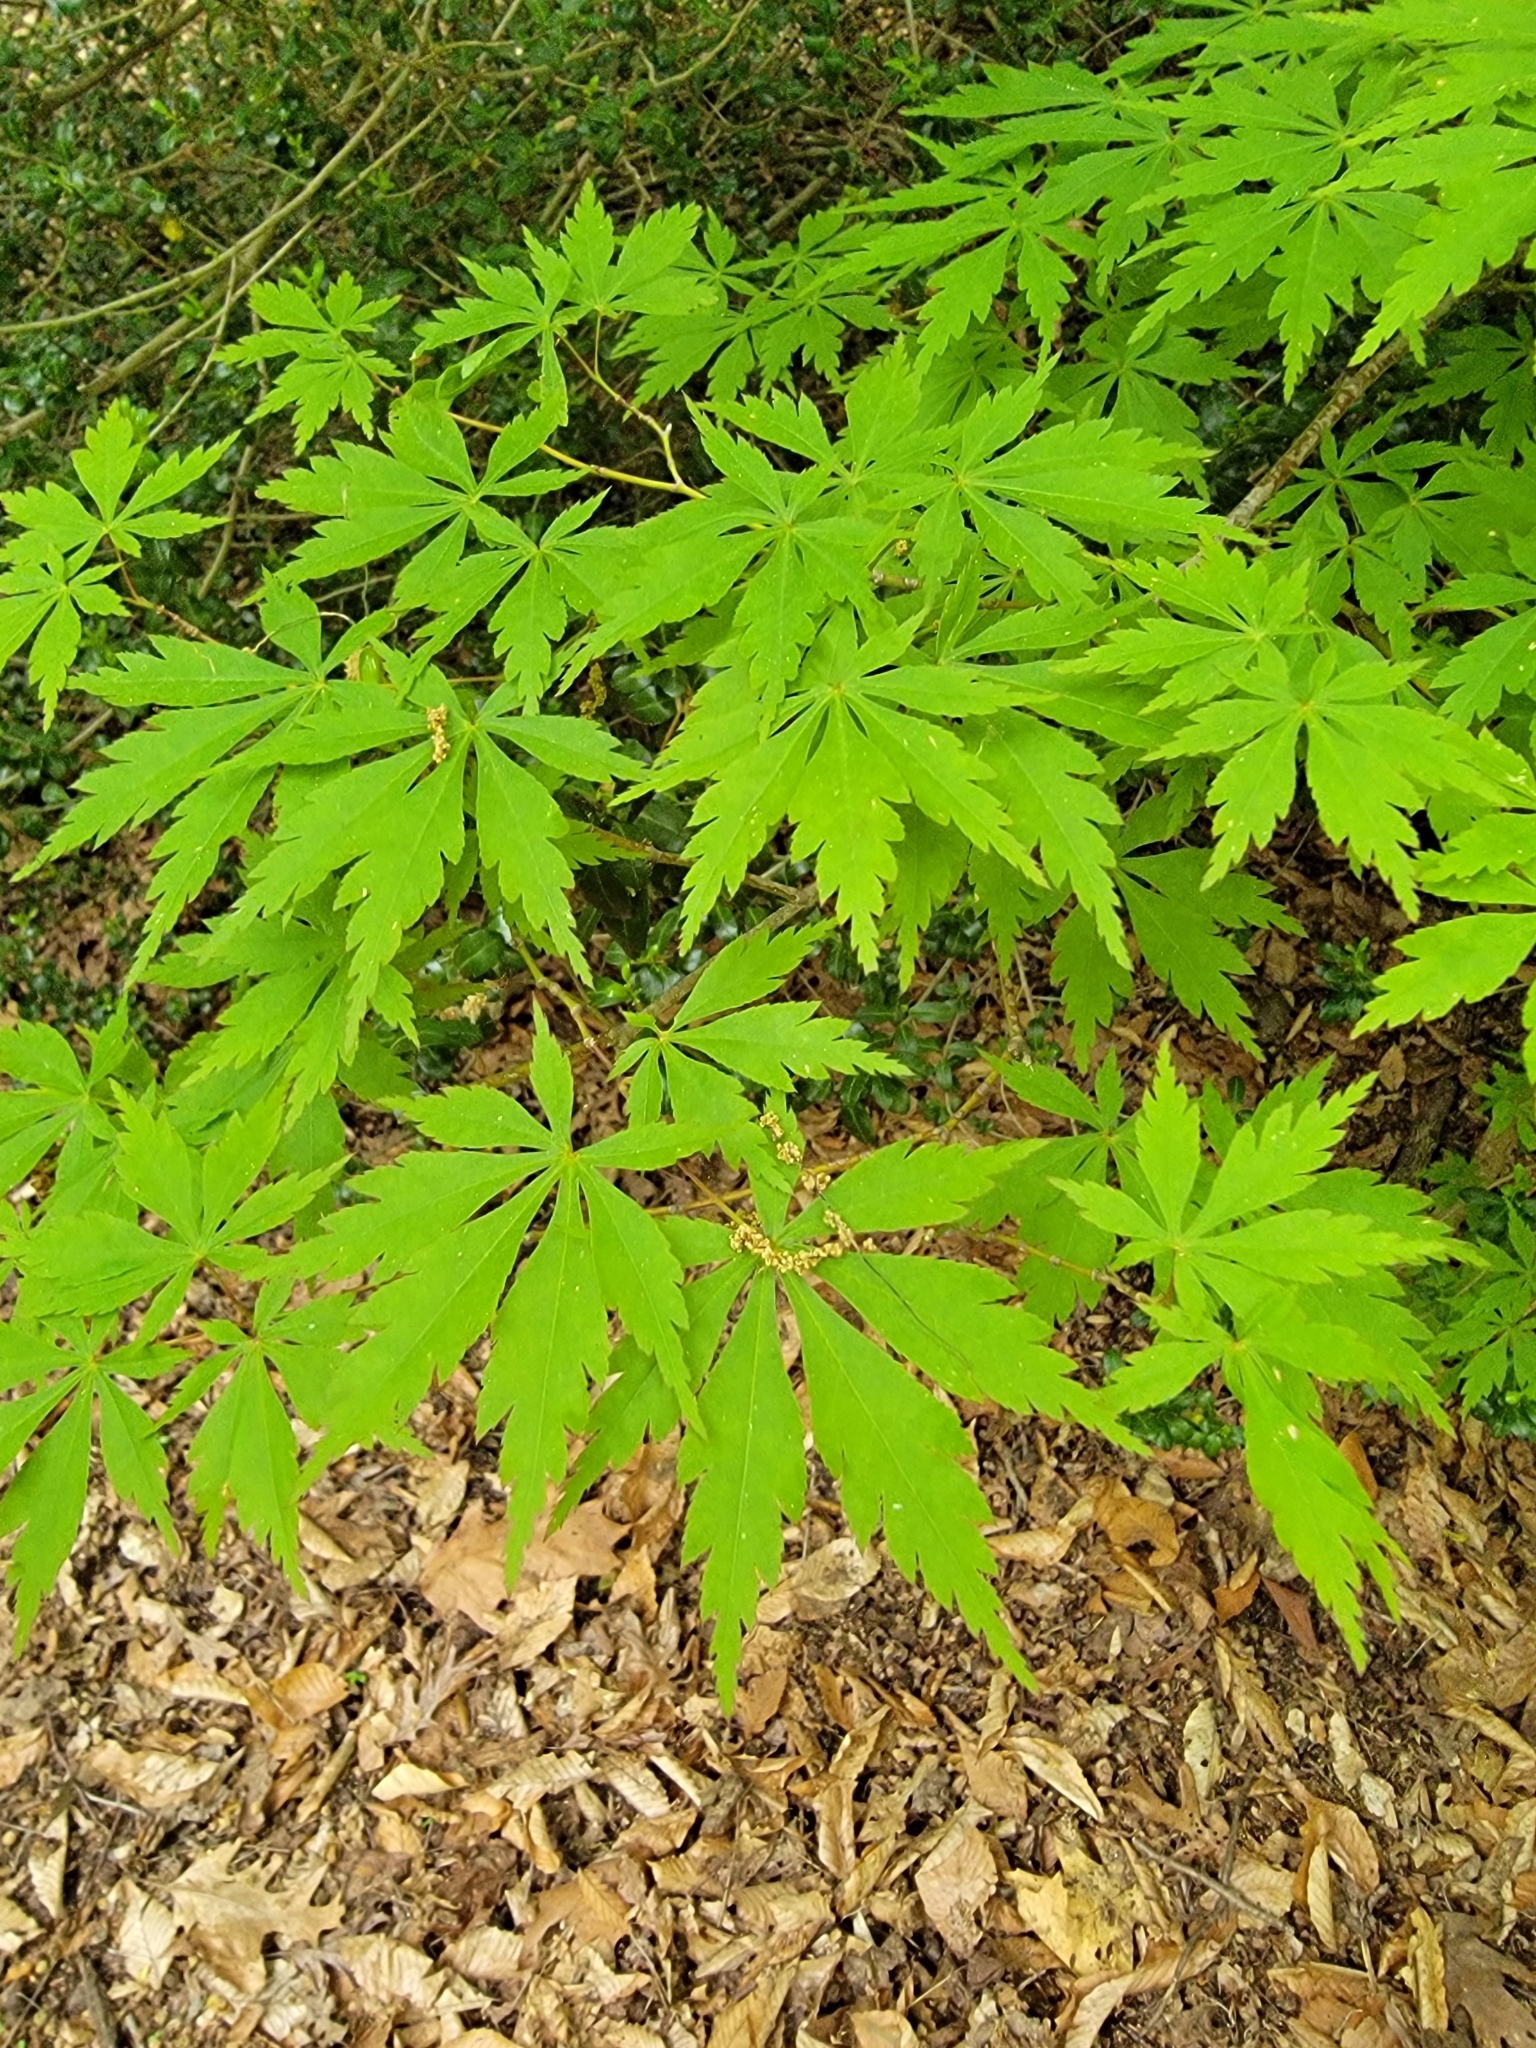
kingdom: Plantae
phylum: Tracheophyta
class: Magnoliopsida
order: Sapindales
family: Sapindaceae
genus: Acer
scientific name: Acer palmatum
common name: Japanese maple
